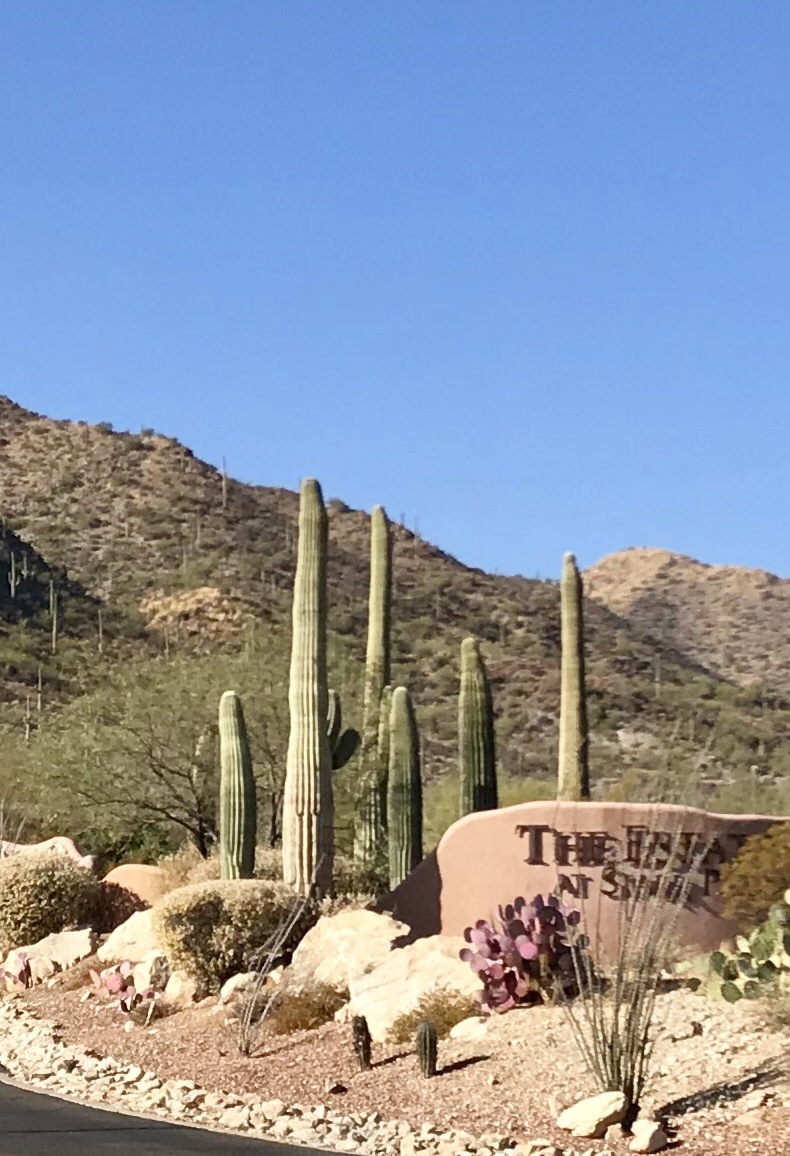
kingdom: Plantae
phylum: Tracheophyta
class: Magnoliopsida
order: Caryophyllales
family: Cactaceae
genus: Carnegiea
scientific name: Carnegiea gigantea
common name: Saguaro
